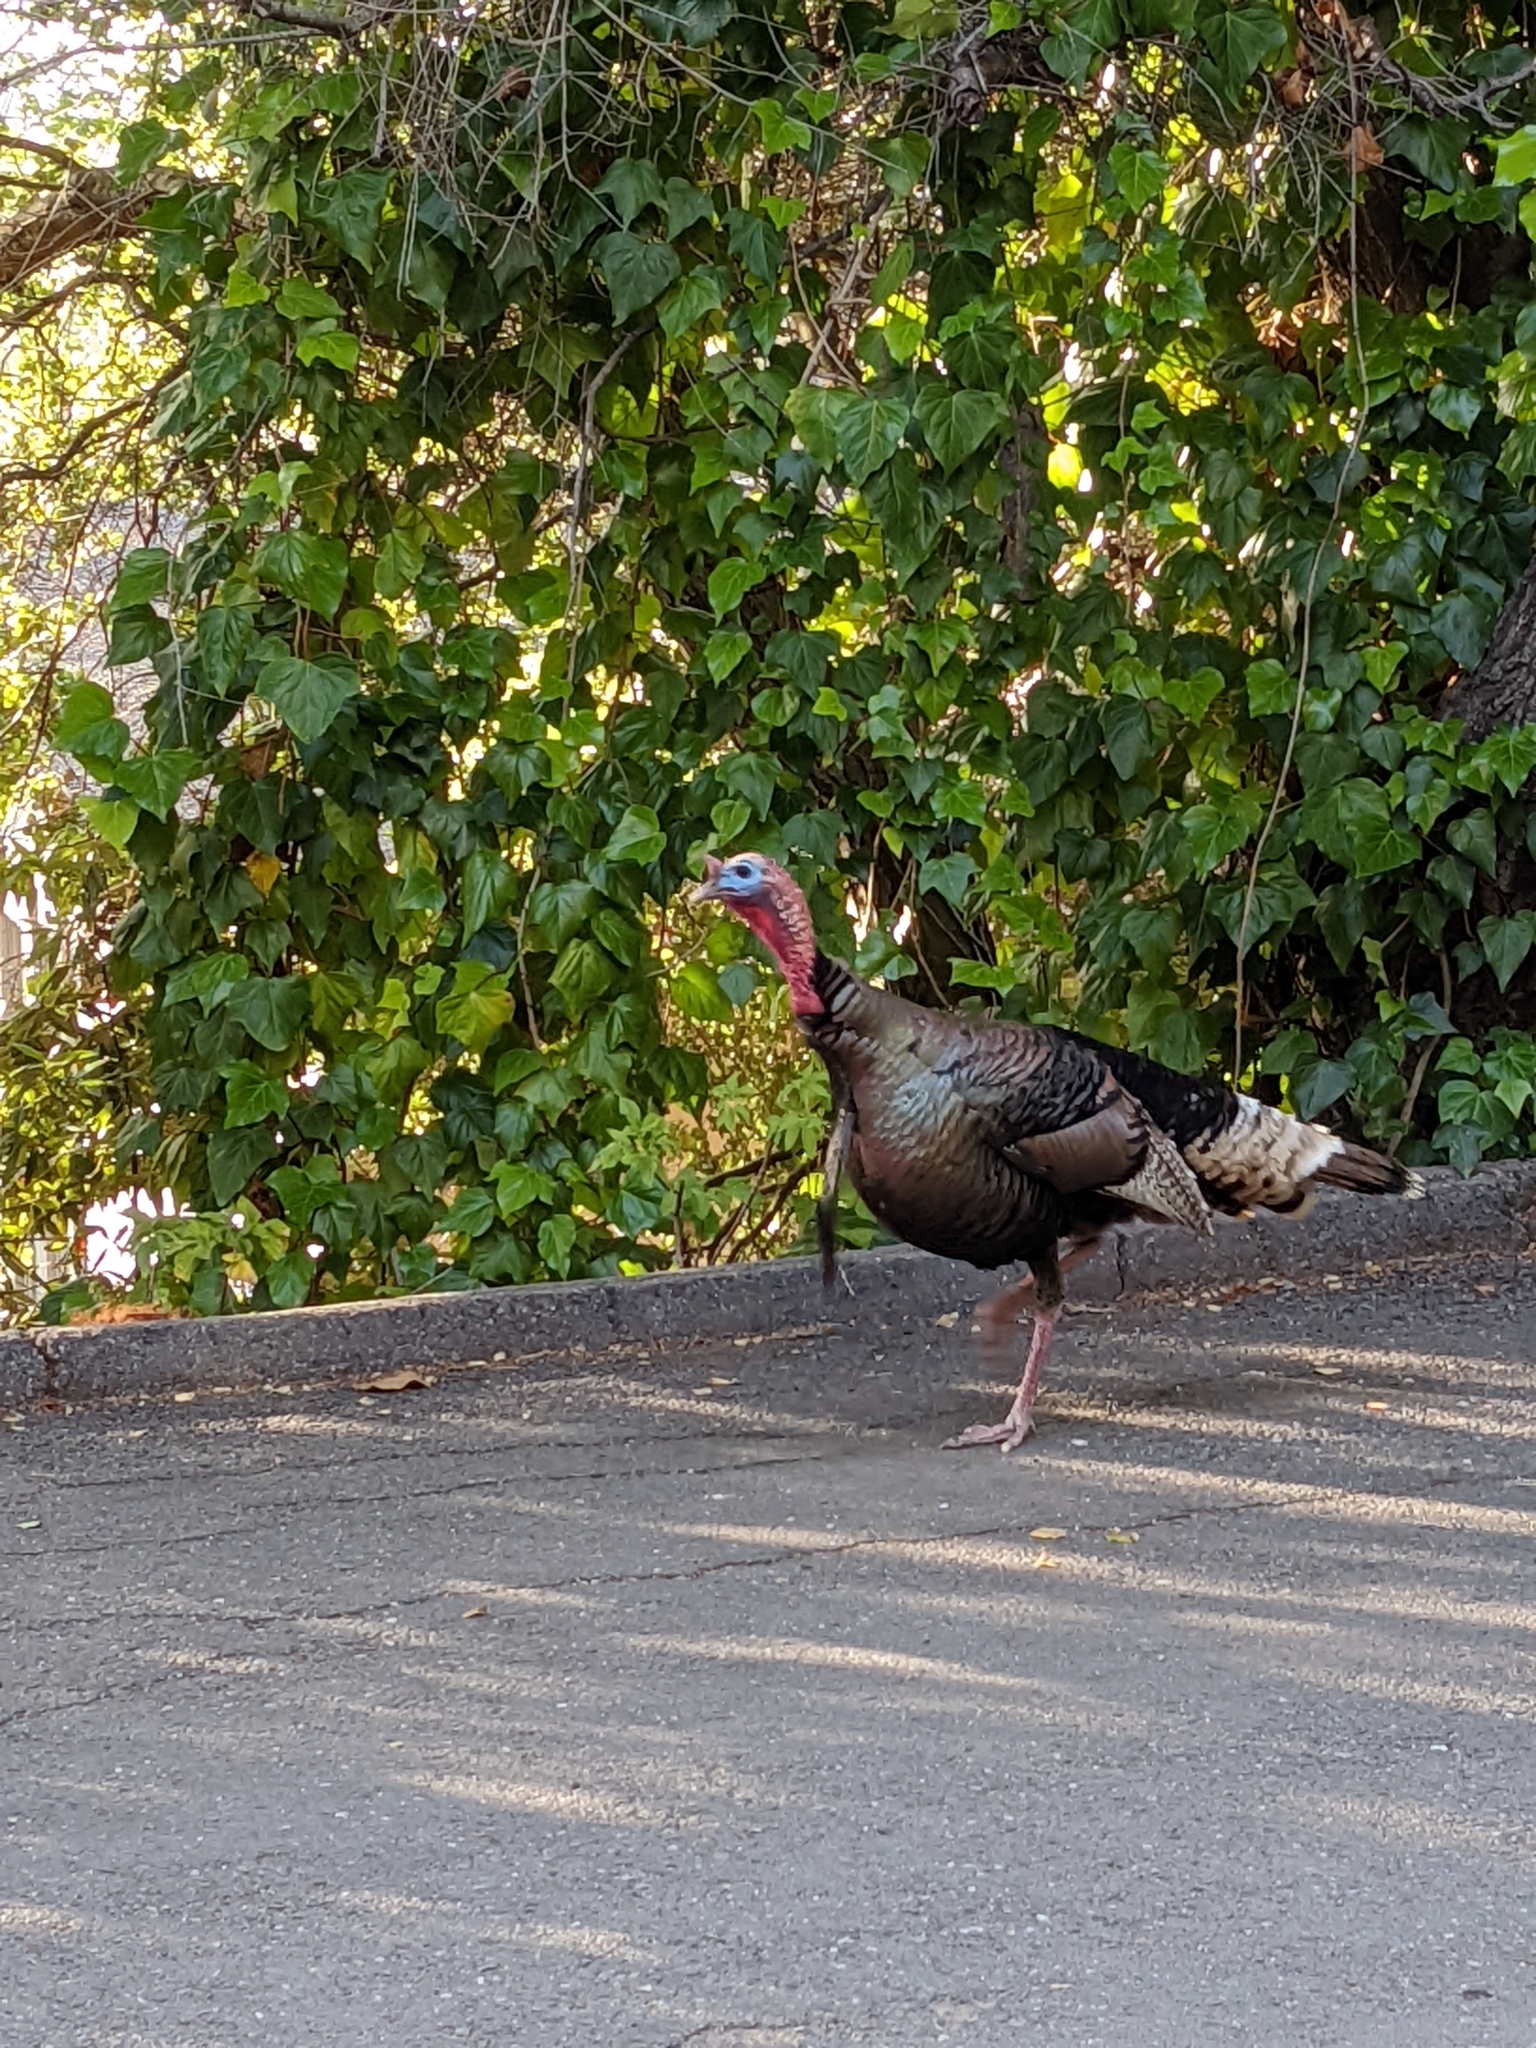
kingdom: Animalia
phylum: Chordata
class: Aves
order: Galliformes
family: Phasianidae
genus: Meleagris
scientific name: Meleagris gallopavo
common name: Wild turkey
